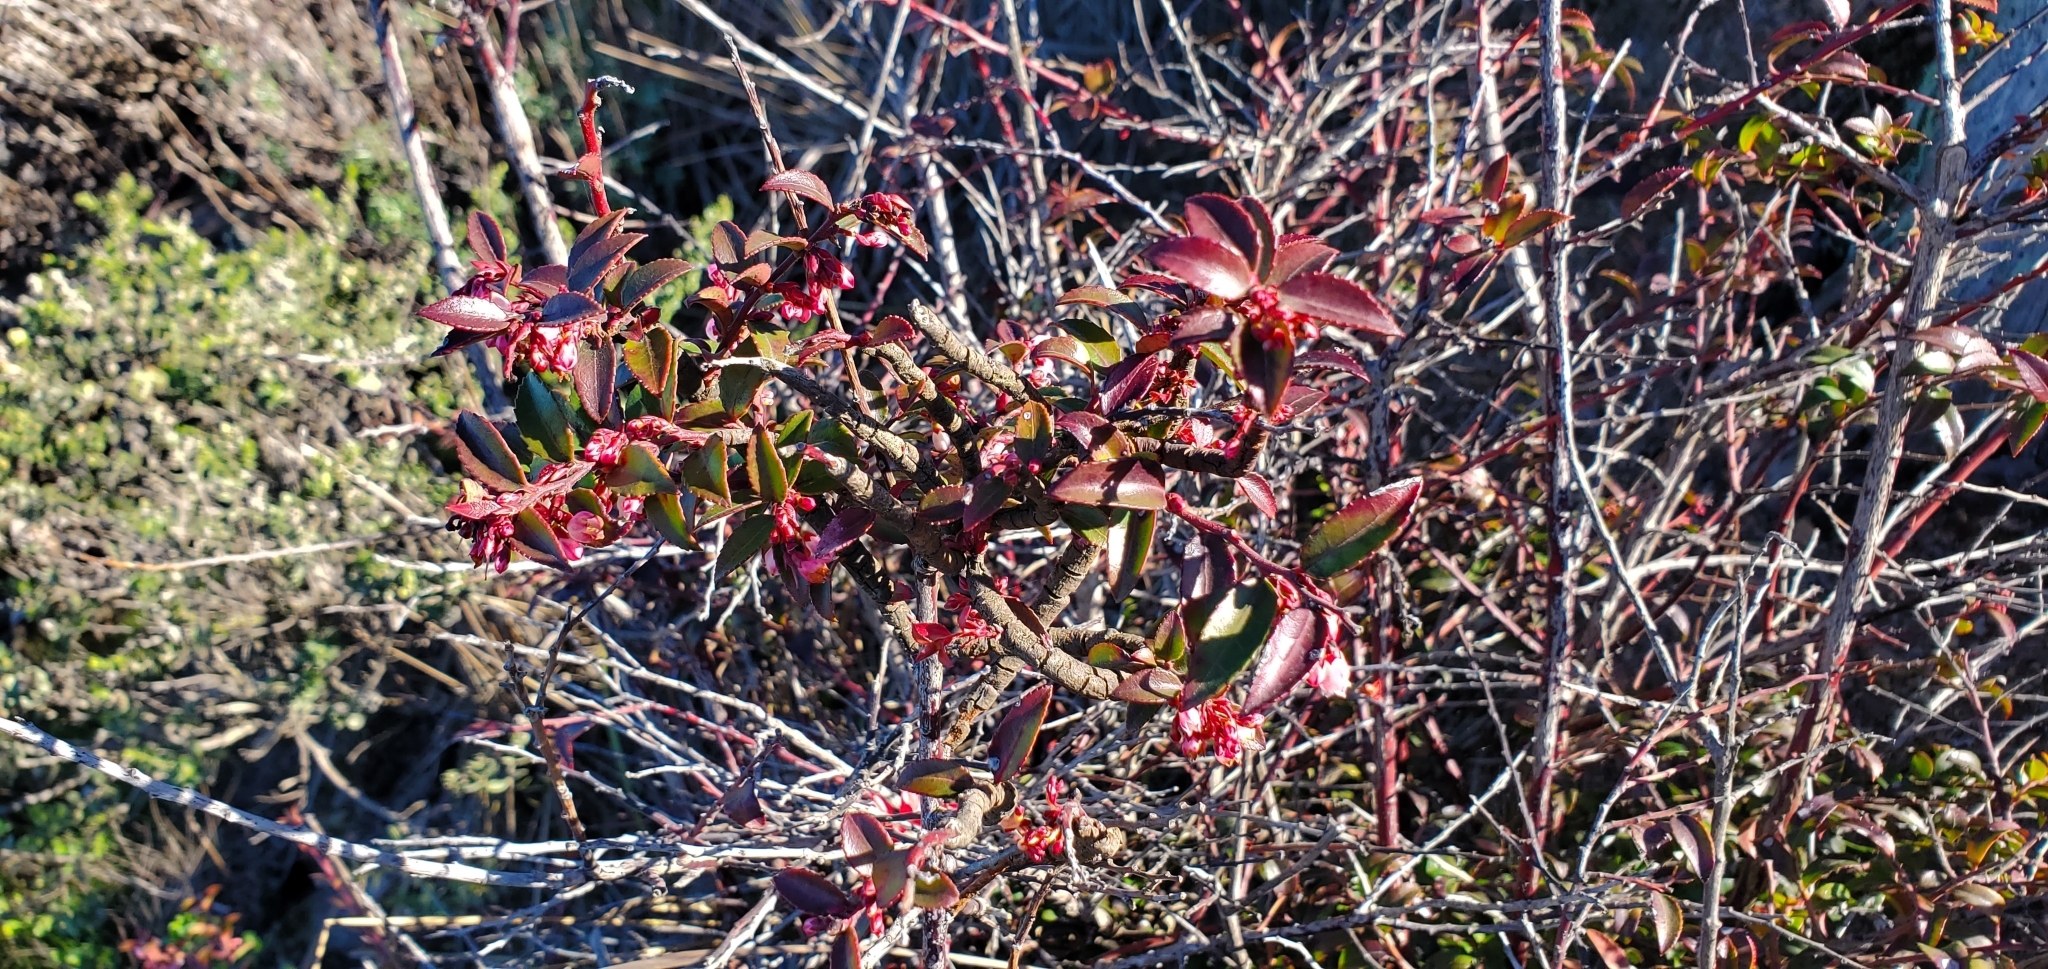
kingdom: Plantae
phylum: Tracheophyta
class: Magnoliopsida
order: Ericales
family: Ericaceae
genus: Vaccinium
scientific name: Vaccinium ovatum
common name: California-huckleberry
